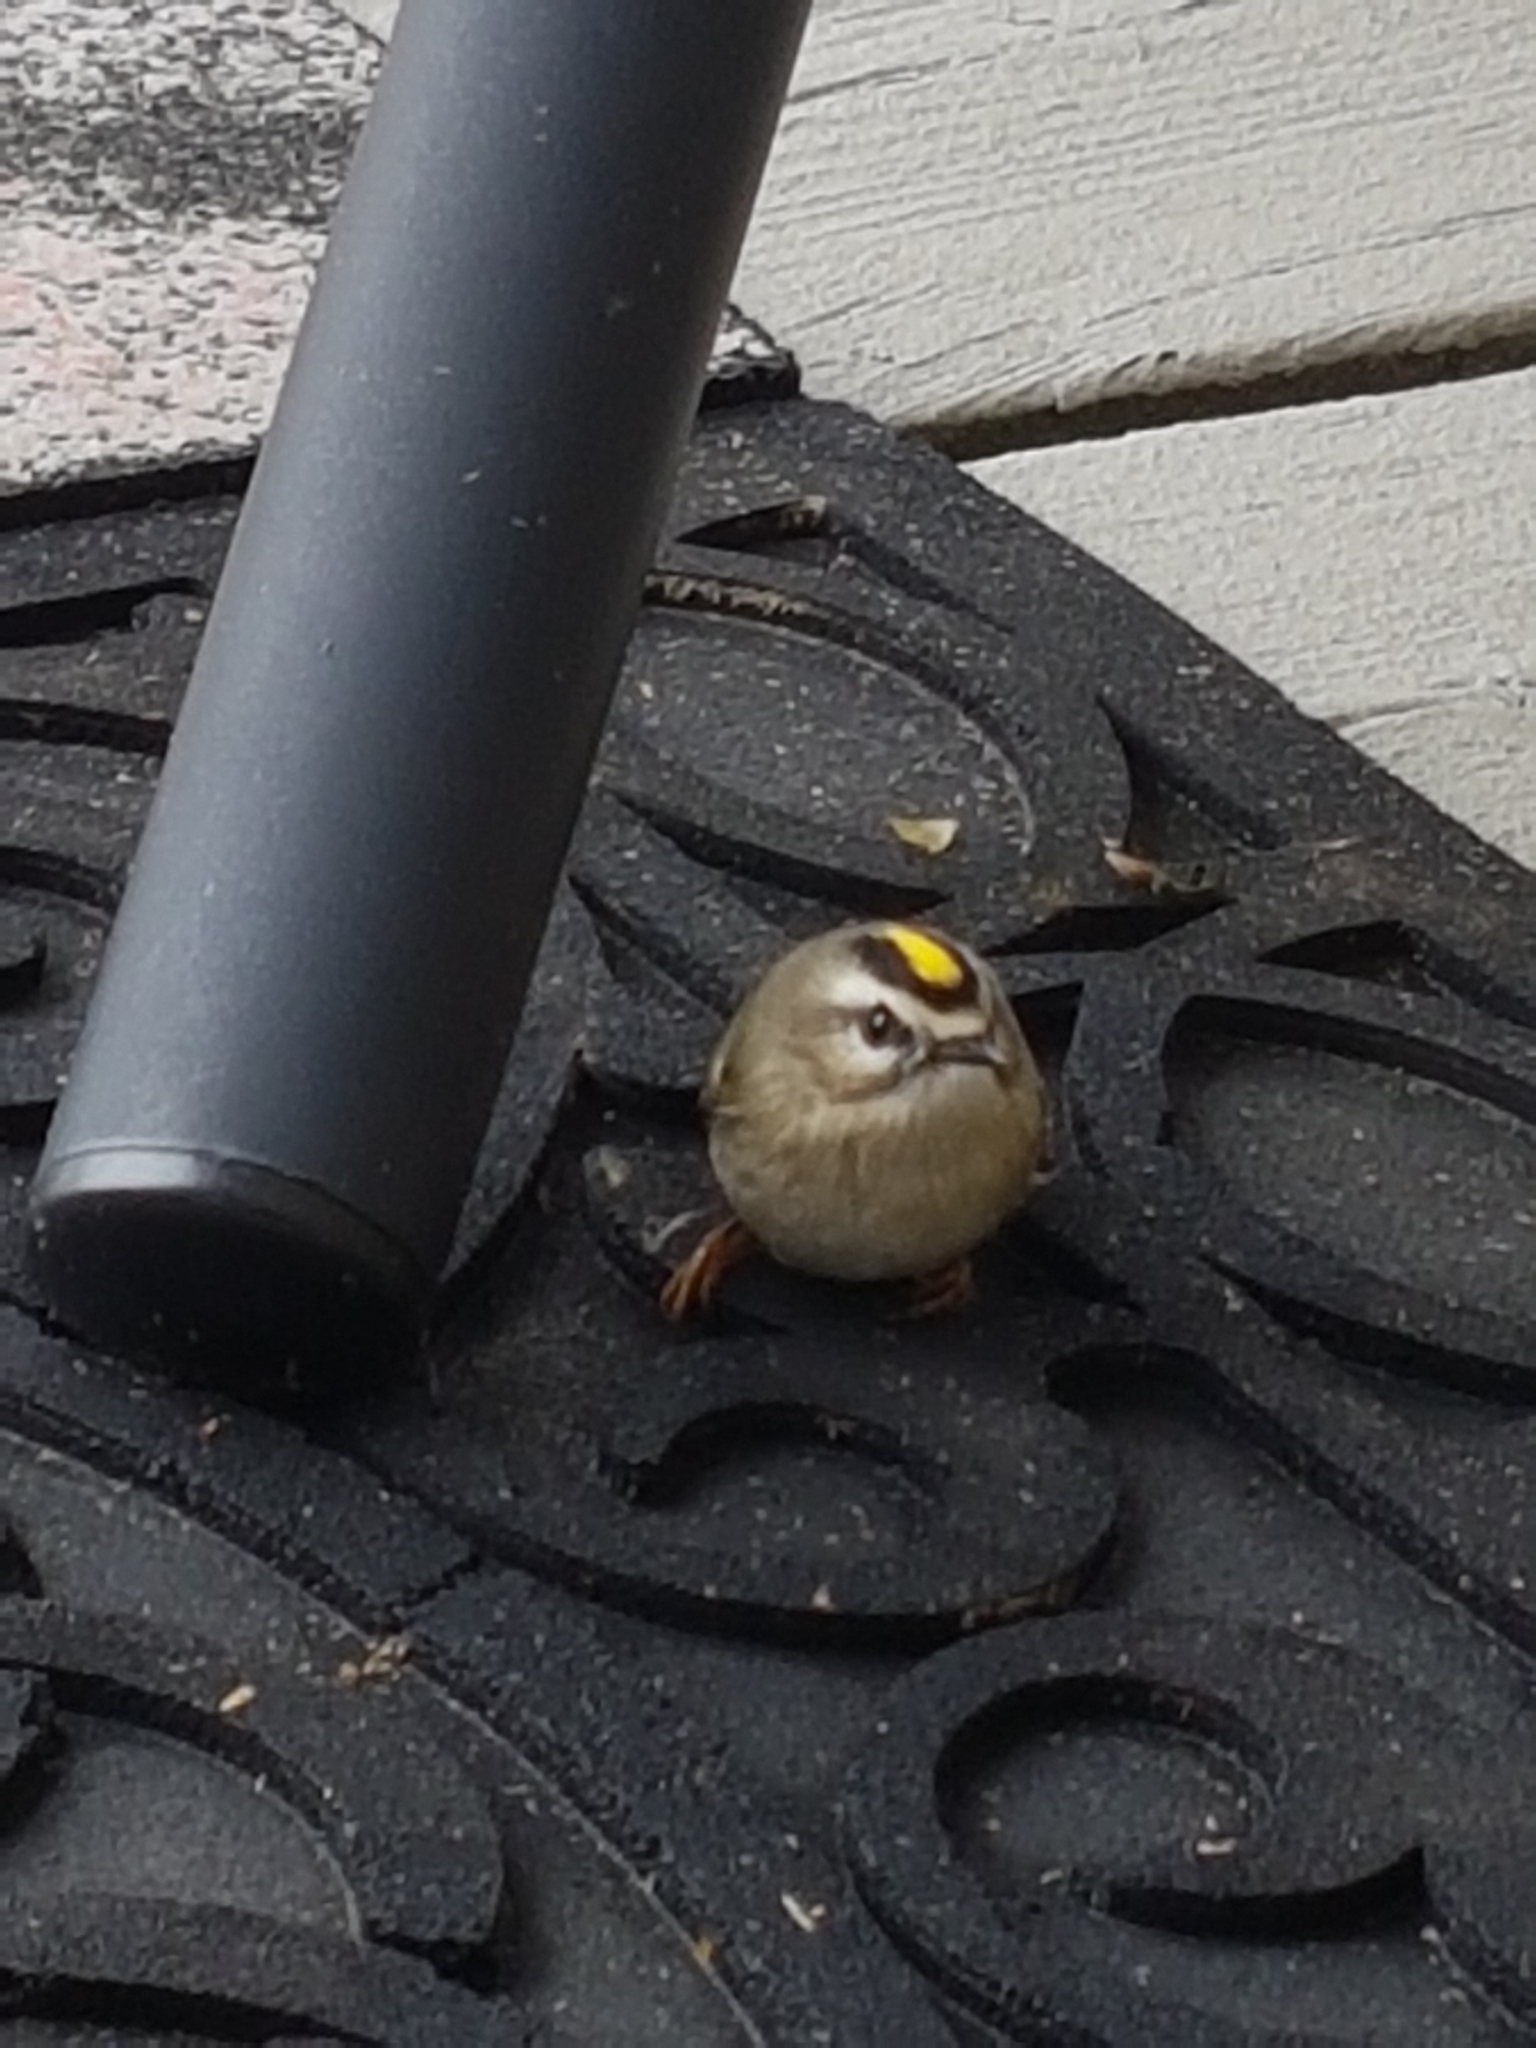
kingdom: Animalia
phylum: Chordata
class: Aves
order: Passeriformes
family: Regulidae
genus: Regulus
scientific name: Regulus satrapa
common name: Golden-crowned kinglet
